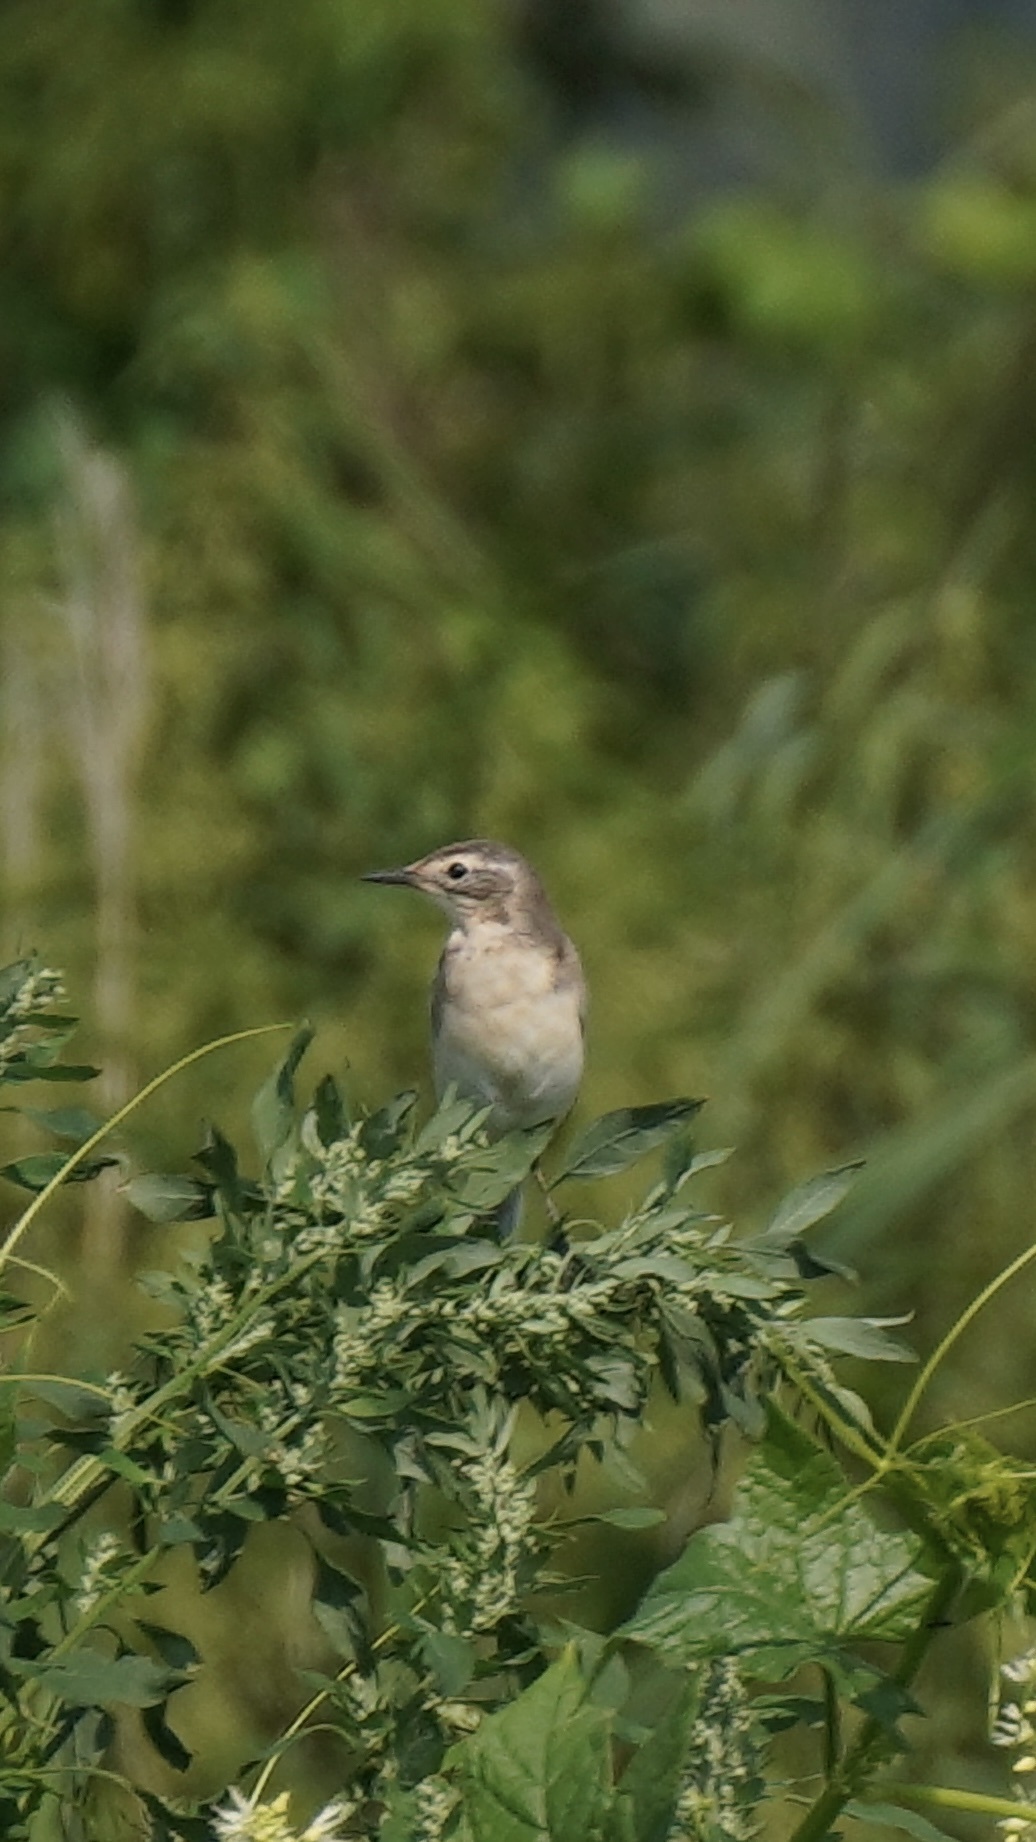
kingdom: Animalia
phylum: Chordata
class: Aves
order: Passeriformes
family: Motacillidae
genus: Motacilla
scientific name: Motacilla flava
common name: Western yellow wagtail
